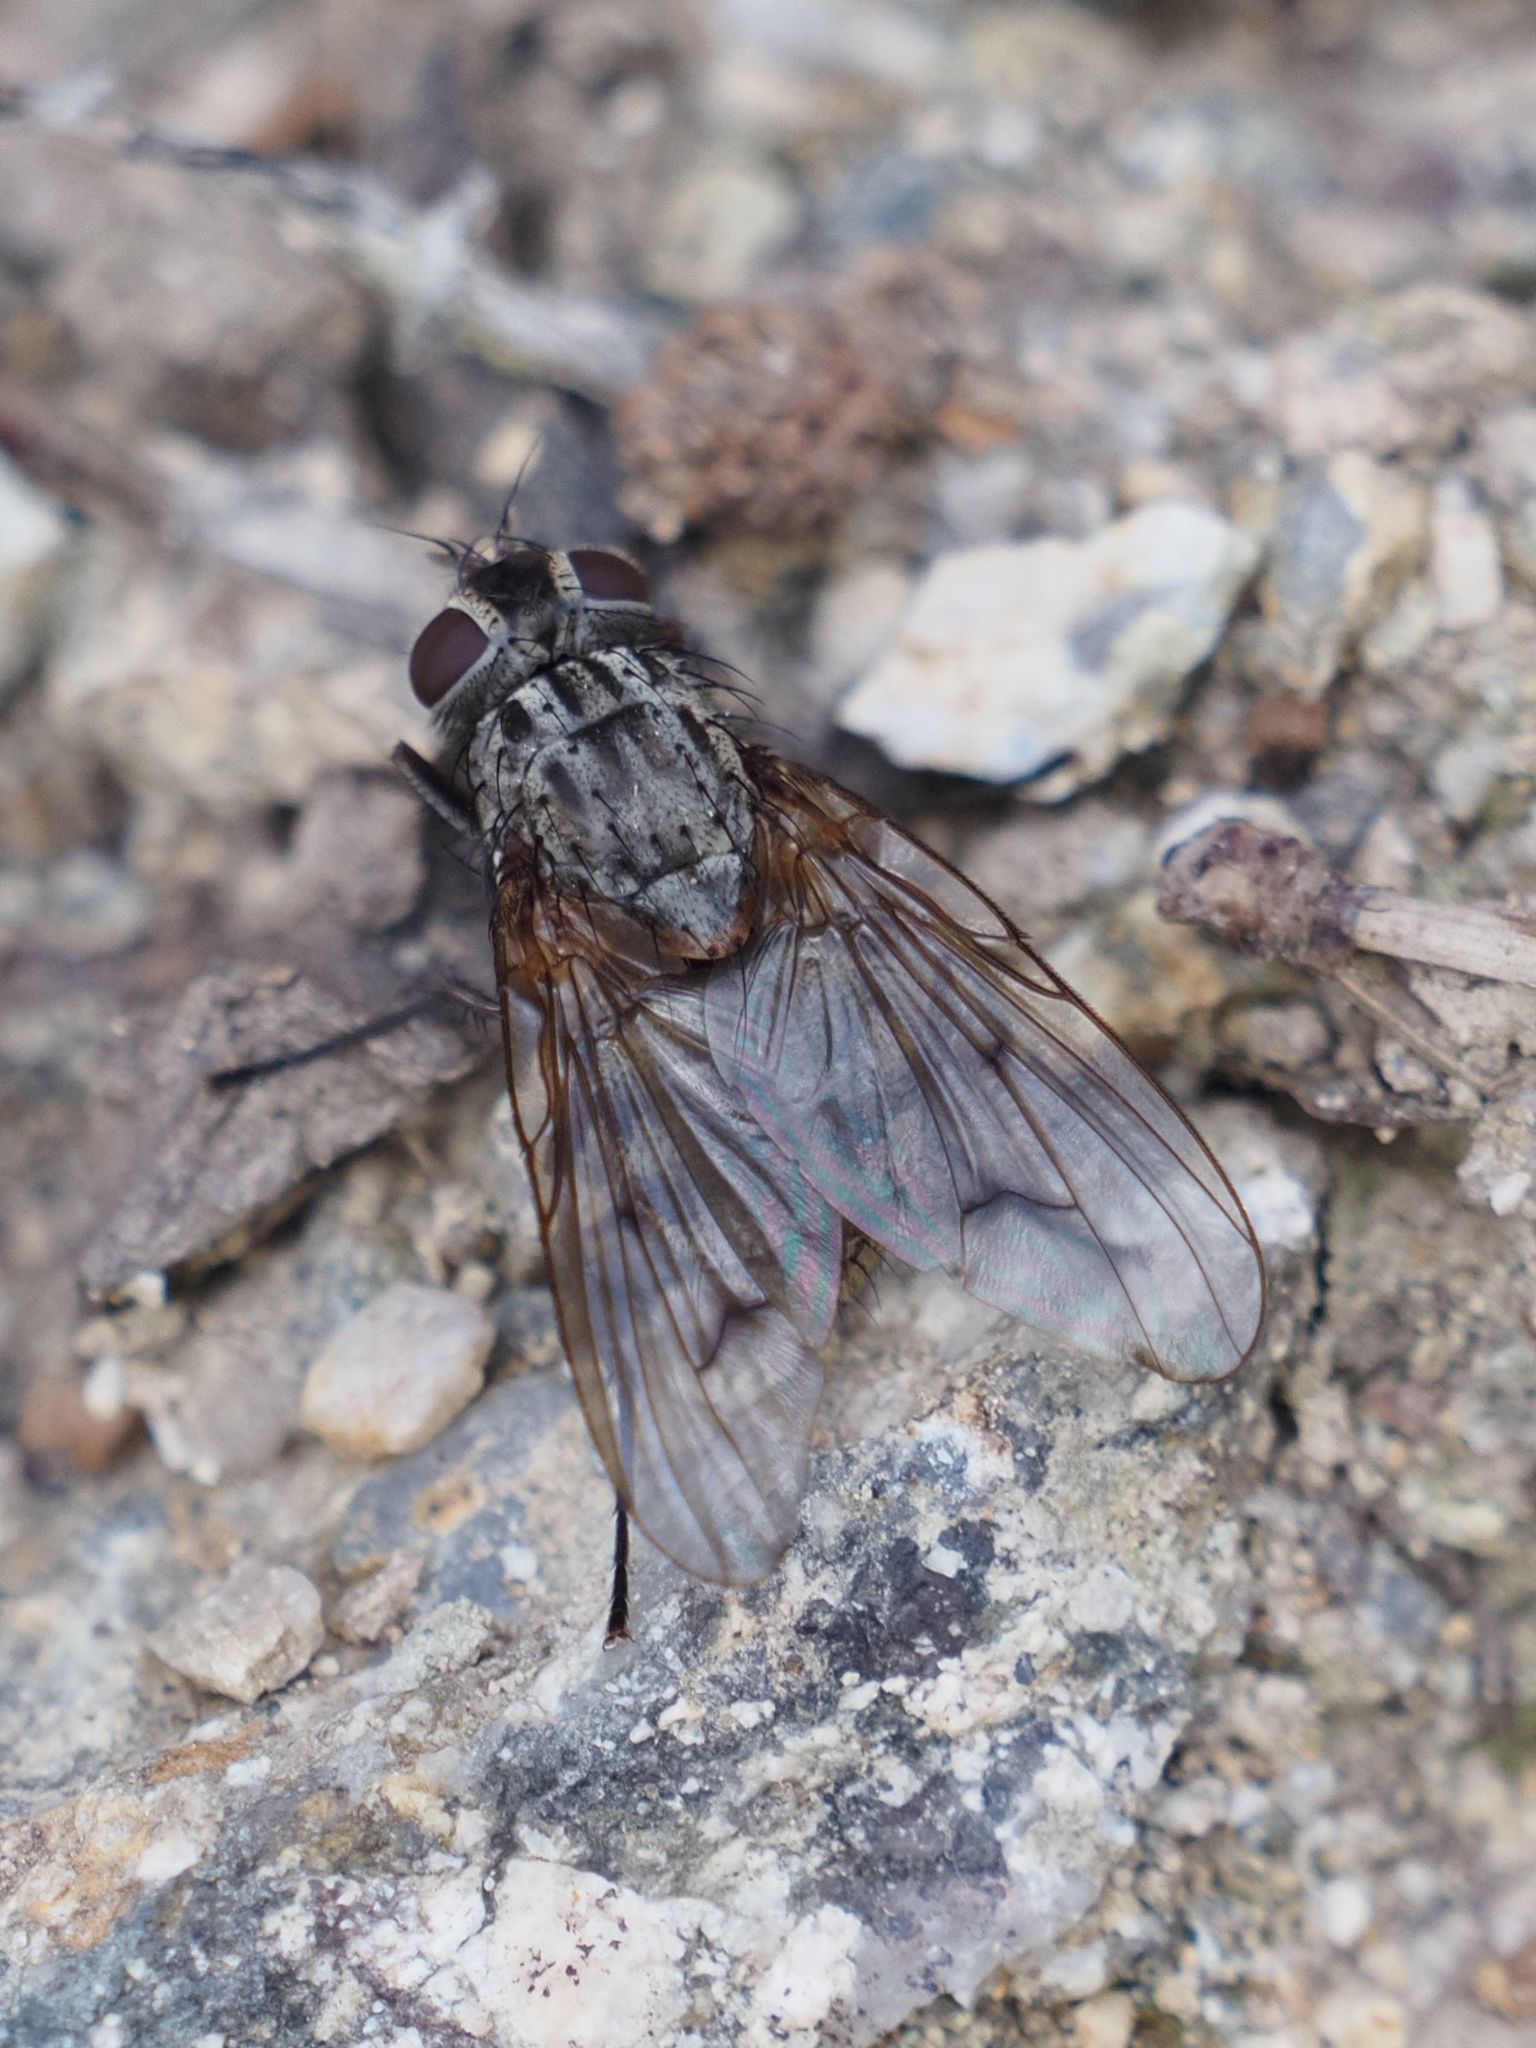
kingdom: Animalia
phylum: Arthropoda
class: Insecta
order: Diptera
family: Muscidae
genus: Phaonia
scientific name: Phaonia tuguriorum
